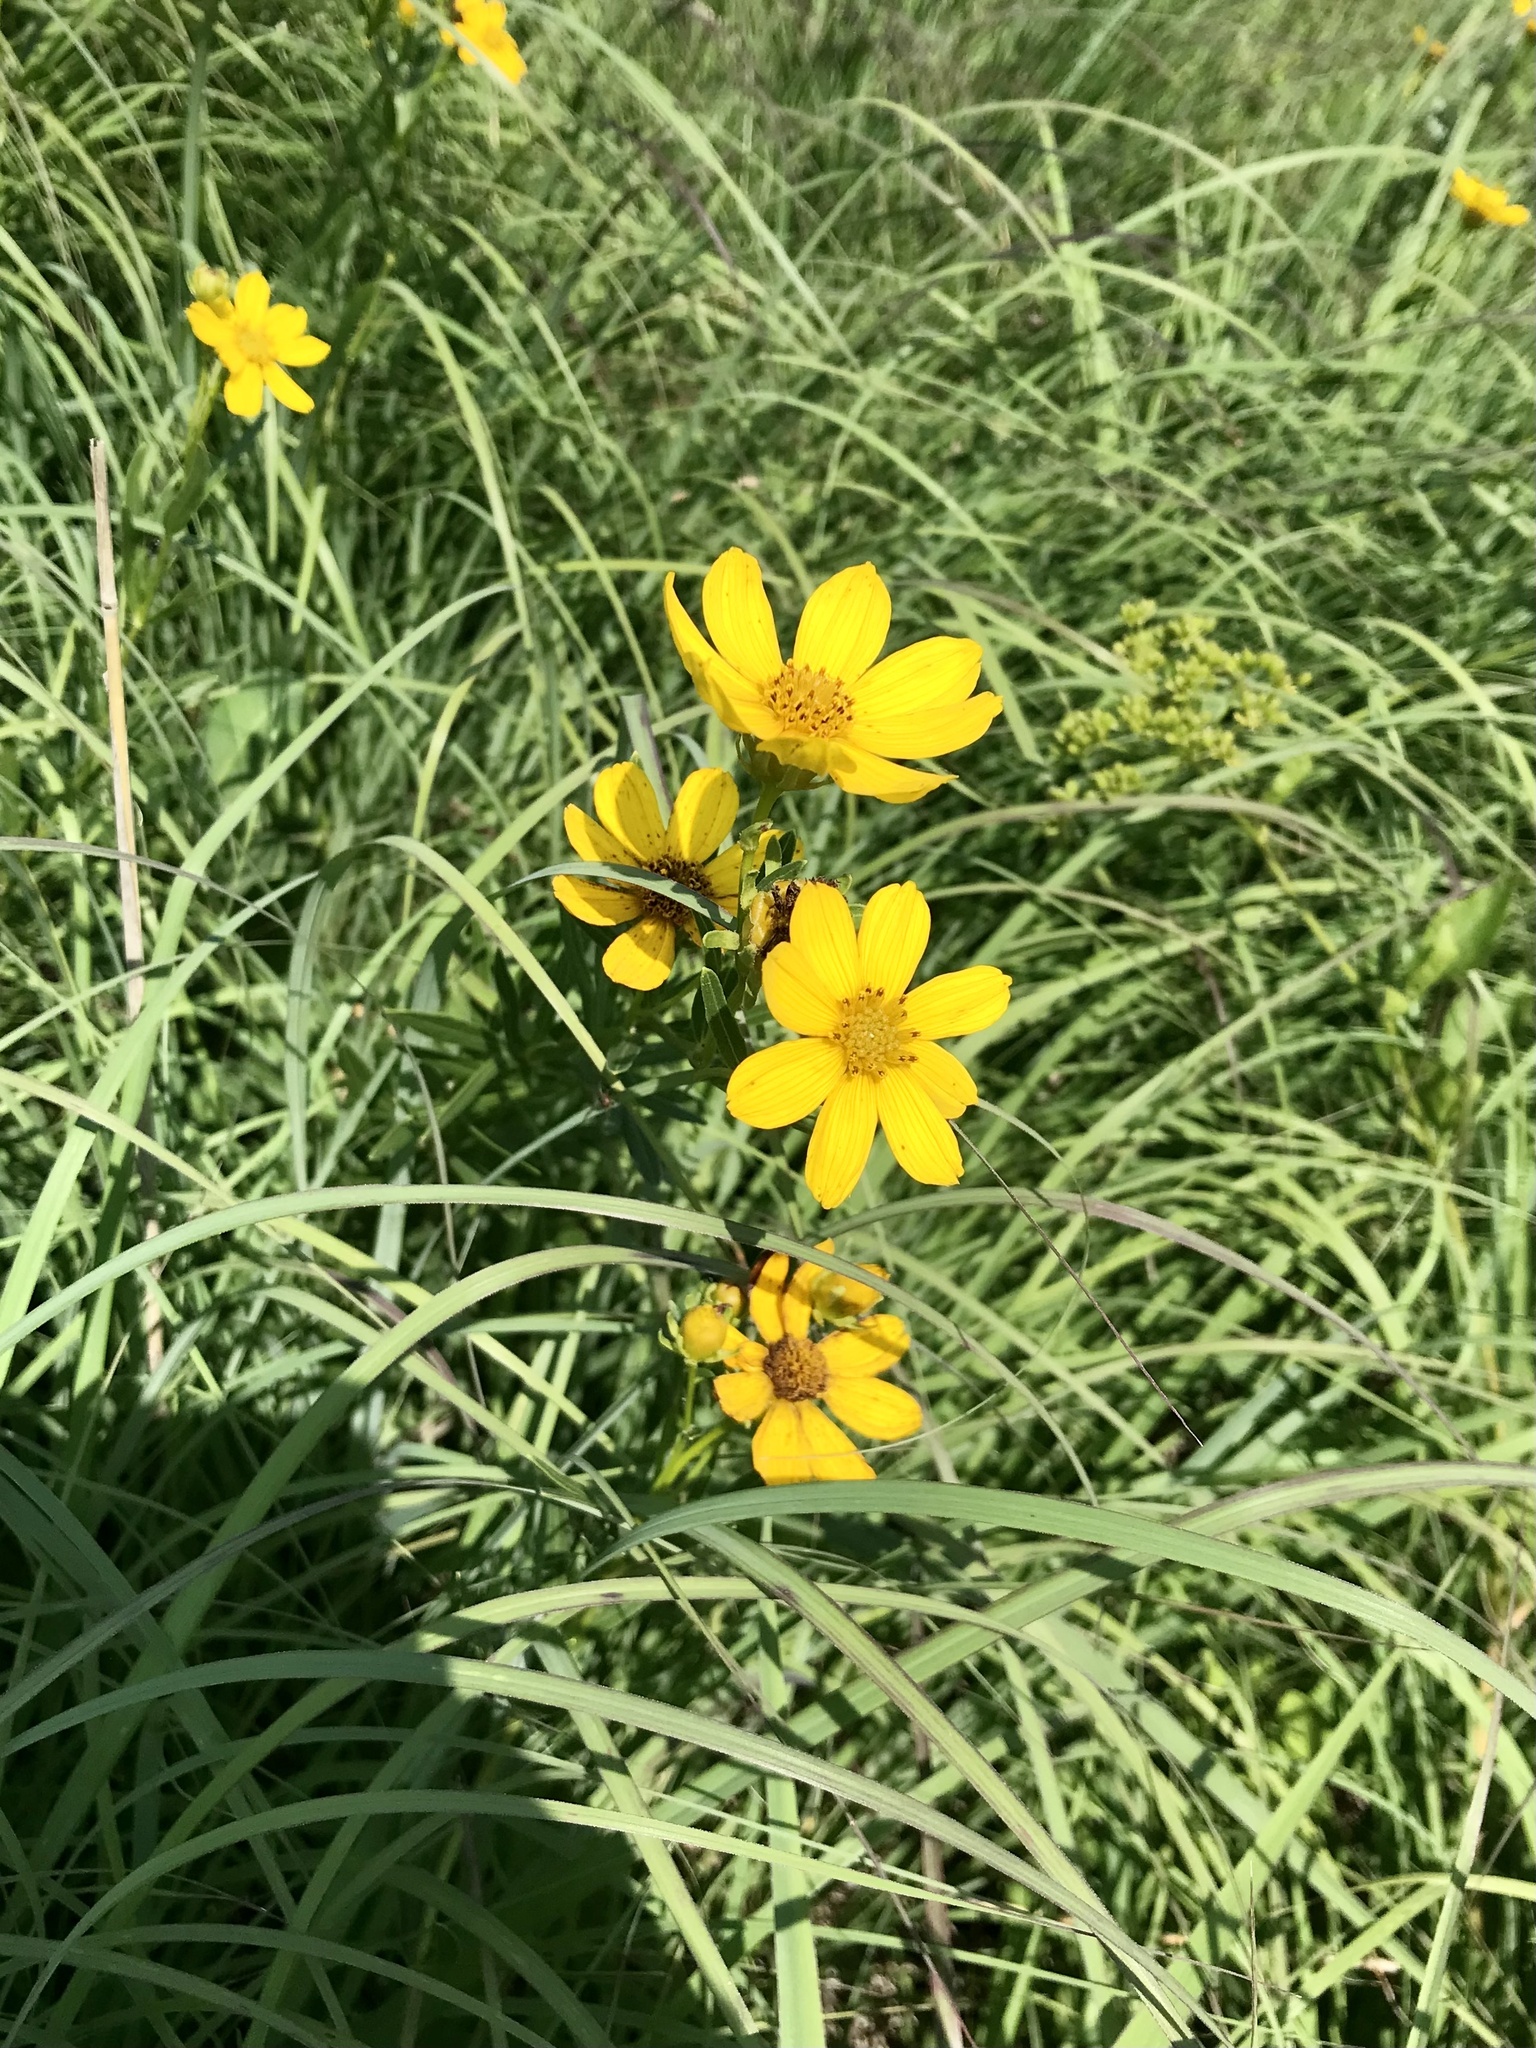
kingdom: Plantae
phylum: Tracheophyta
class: Magnoliopsida
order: Asterales
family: Asteraceae
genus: Coreopsis
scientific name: Coreopsis palmata
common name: Prairie coreopsis
